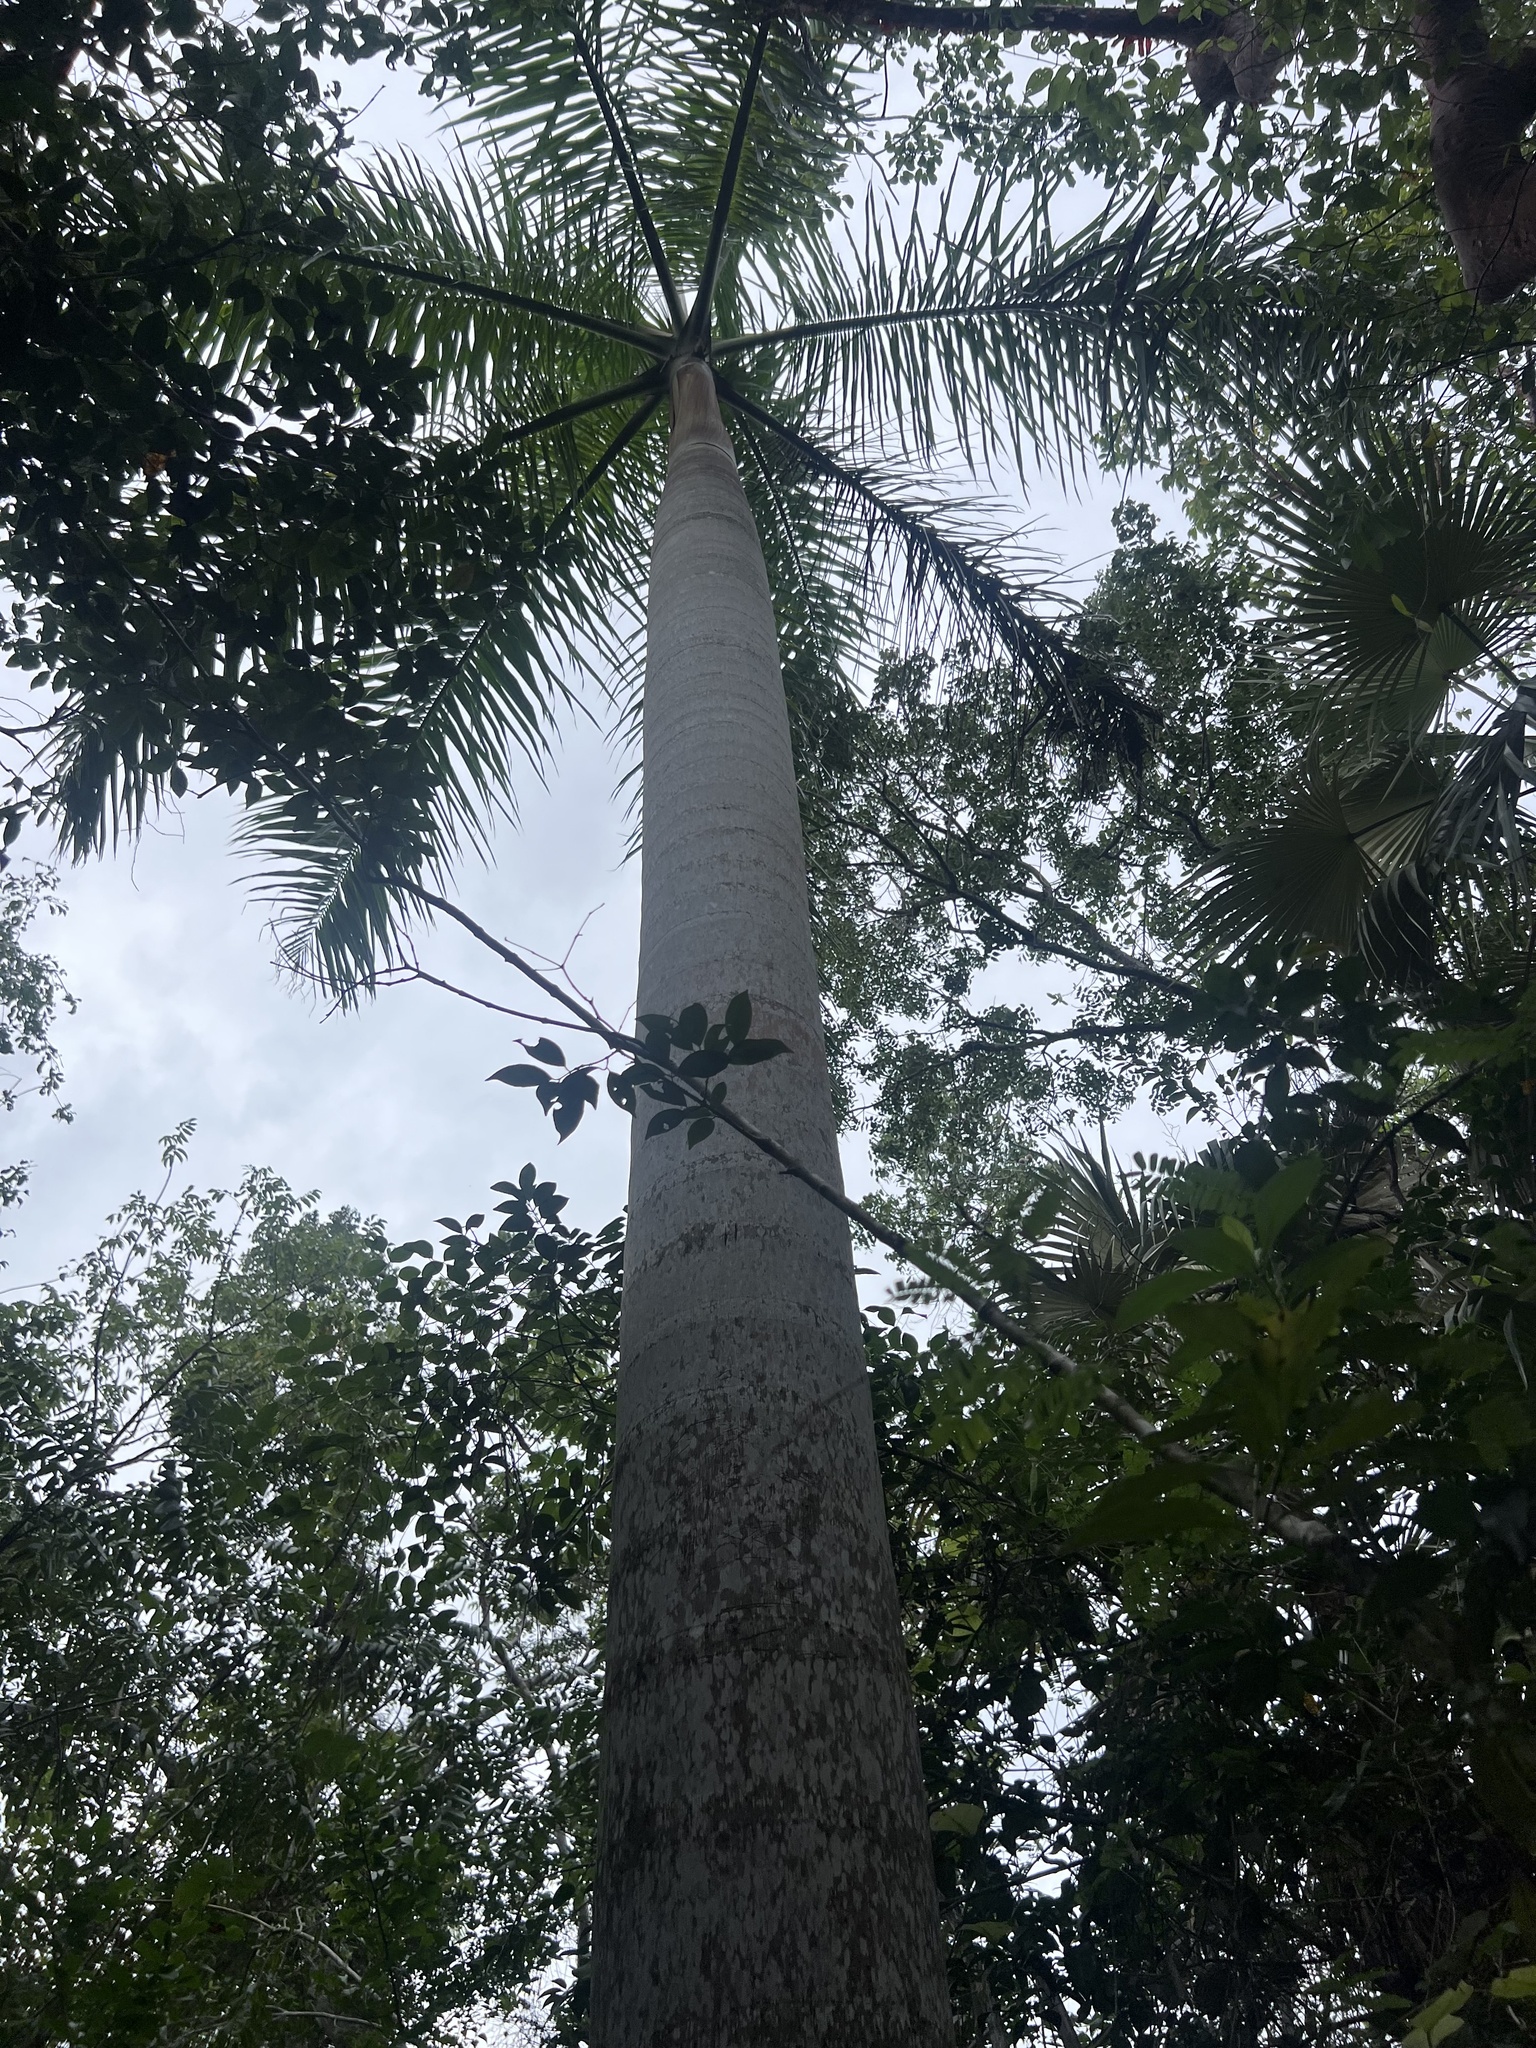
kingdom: Plantae
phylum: Tracheophyta
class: Liliopsida
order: Arecales
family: Arecaceae
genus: Roystonea
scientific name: Roystonea regia
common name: Florida royal palm
